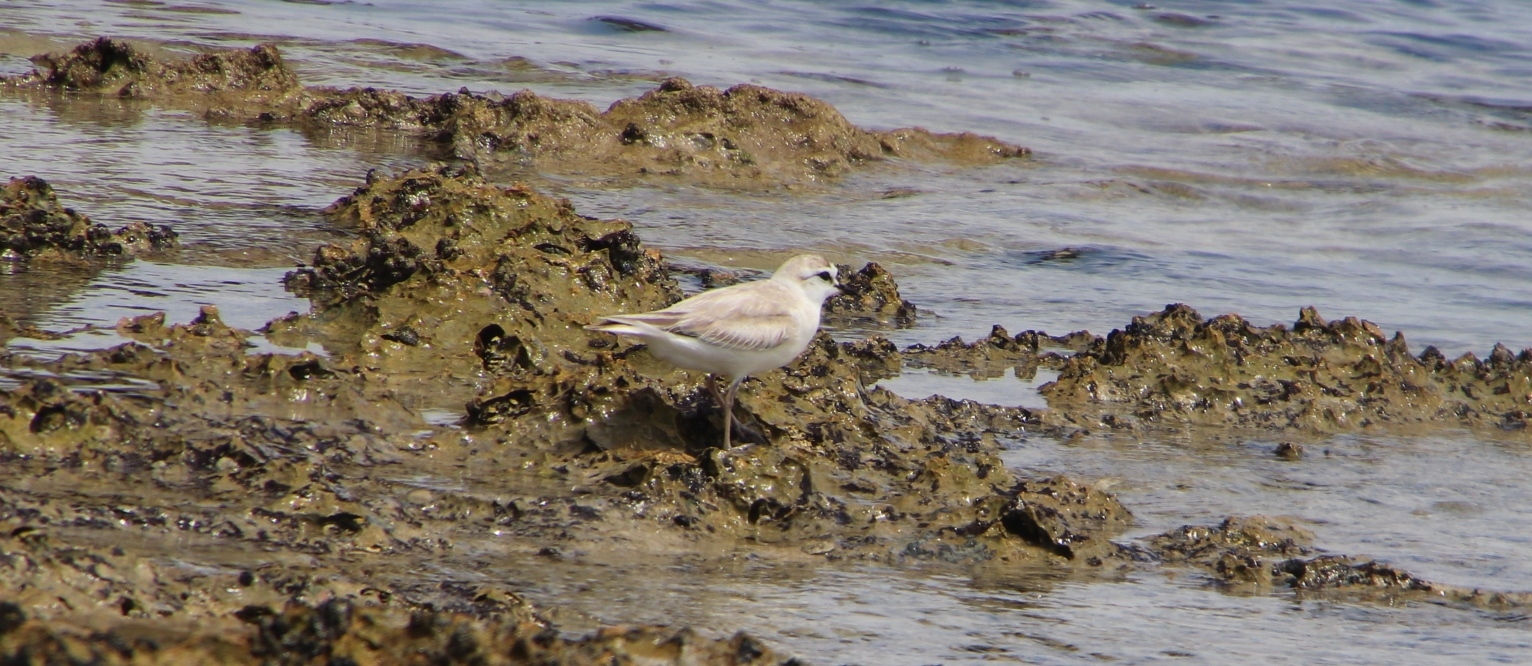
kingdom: Animalia
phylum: Chordata
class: Aves
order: Charadriiformes
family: Charadriidae
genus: Anarhynchus
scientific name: Anarhynchus
